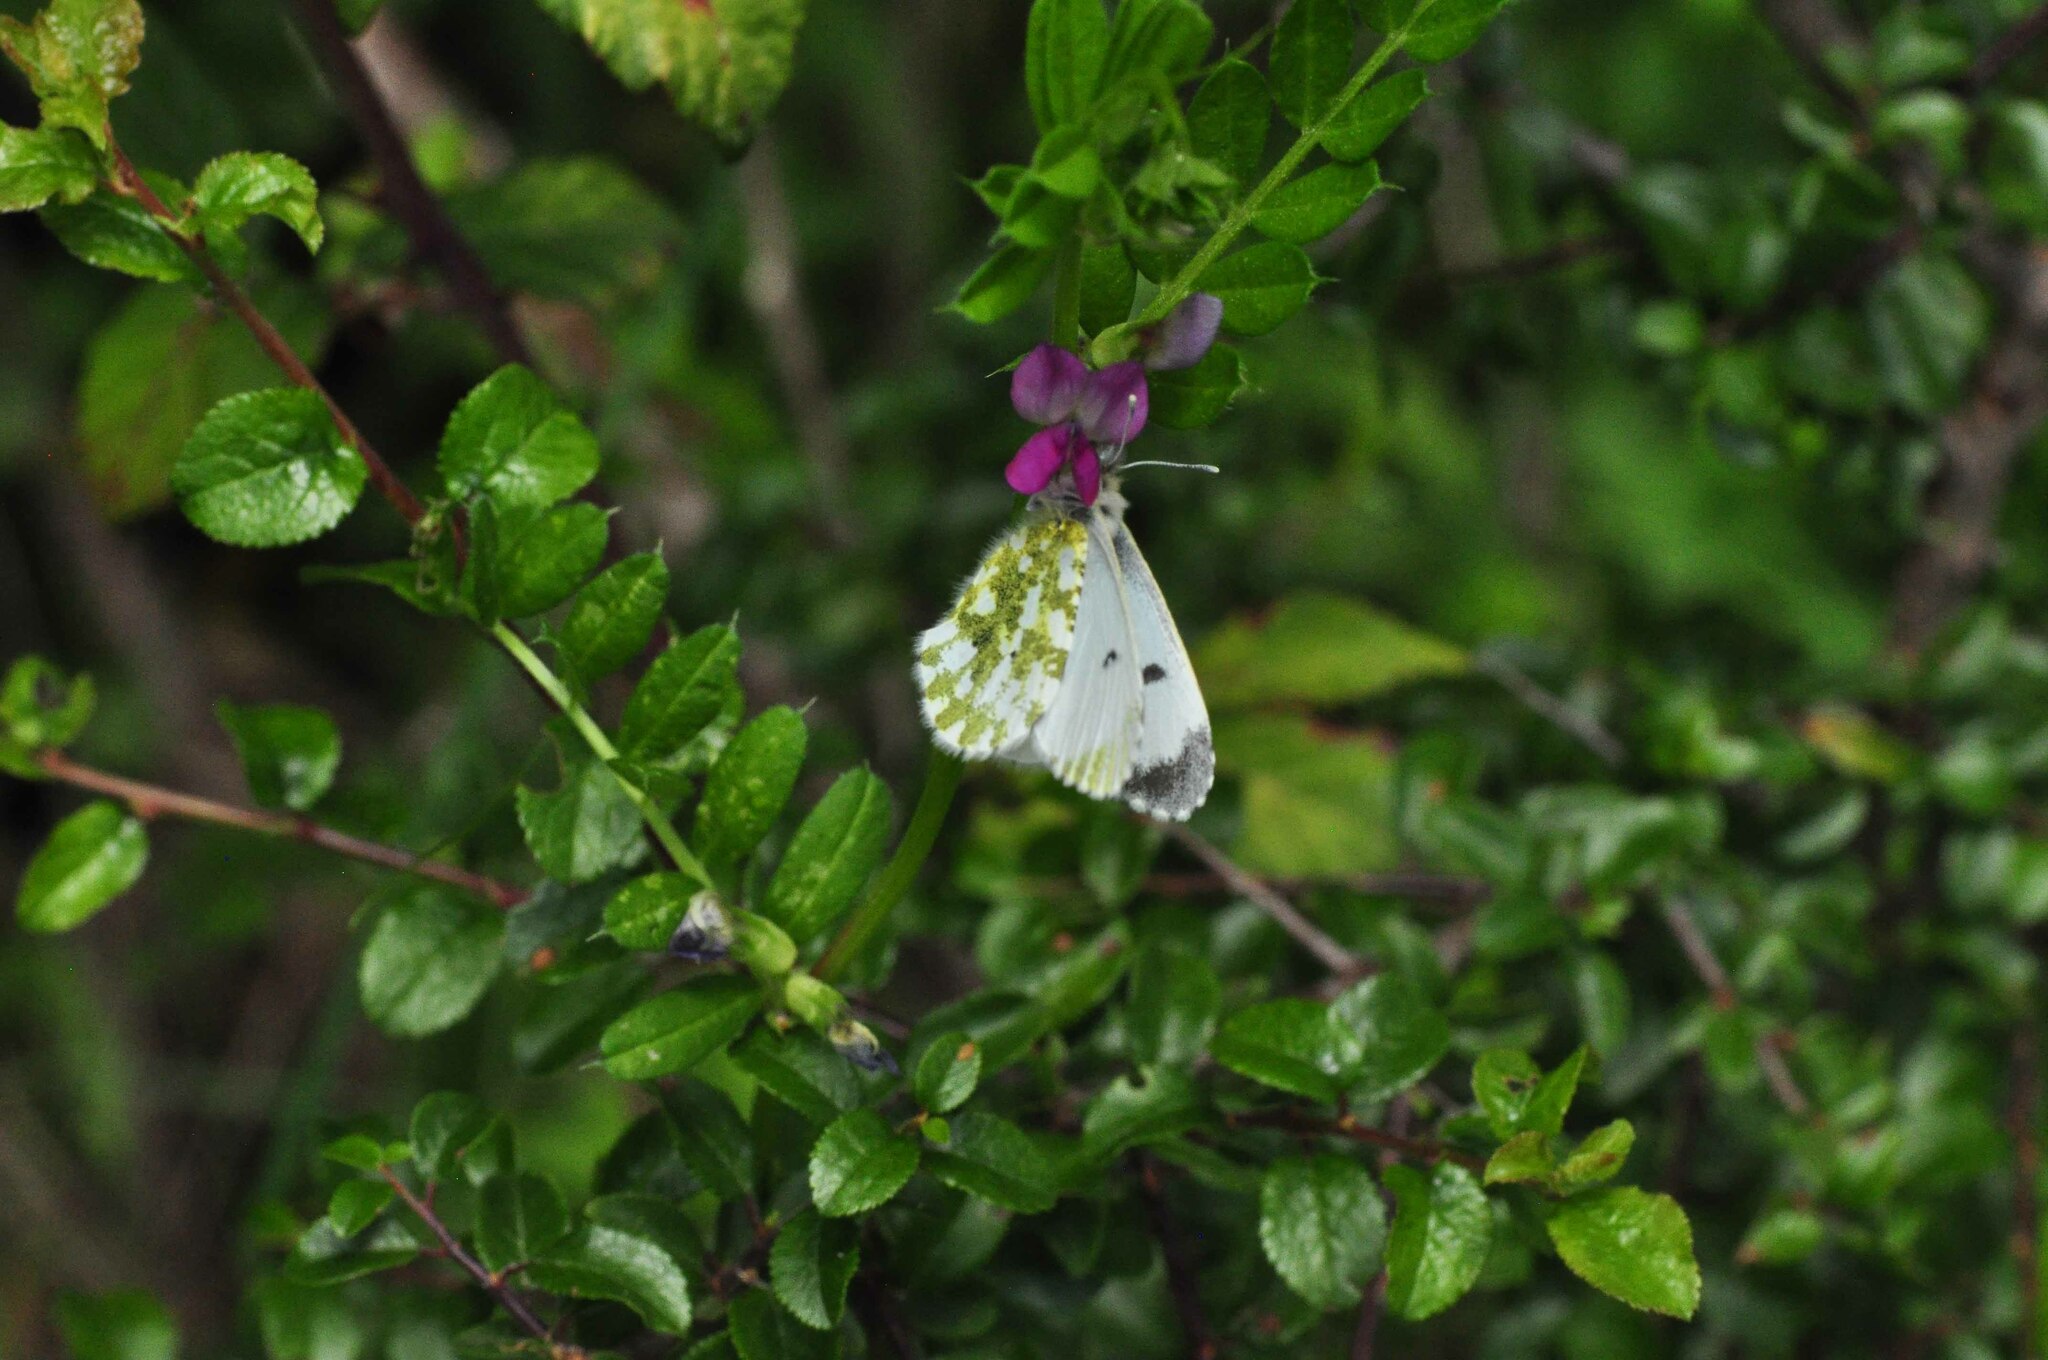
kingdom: Animalia
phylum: Arthropoda
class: Insecta
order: Lepidoptera
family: Pieridae
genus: Anthocharis
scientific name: Anthocharis cardamines
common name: Orange-tip
